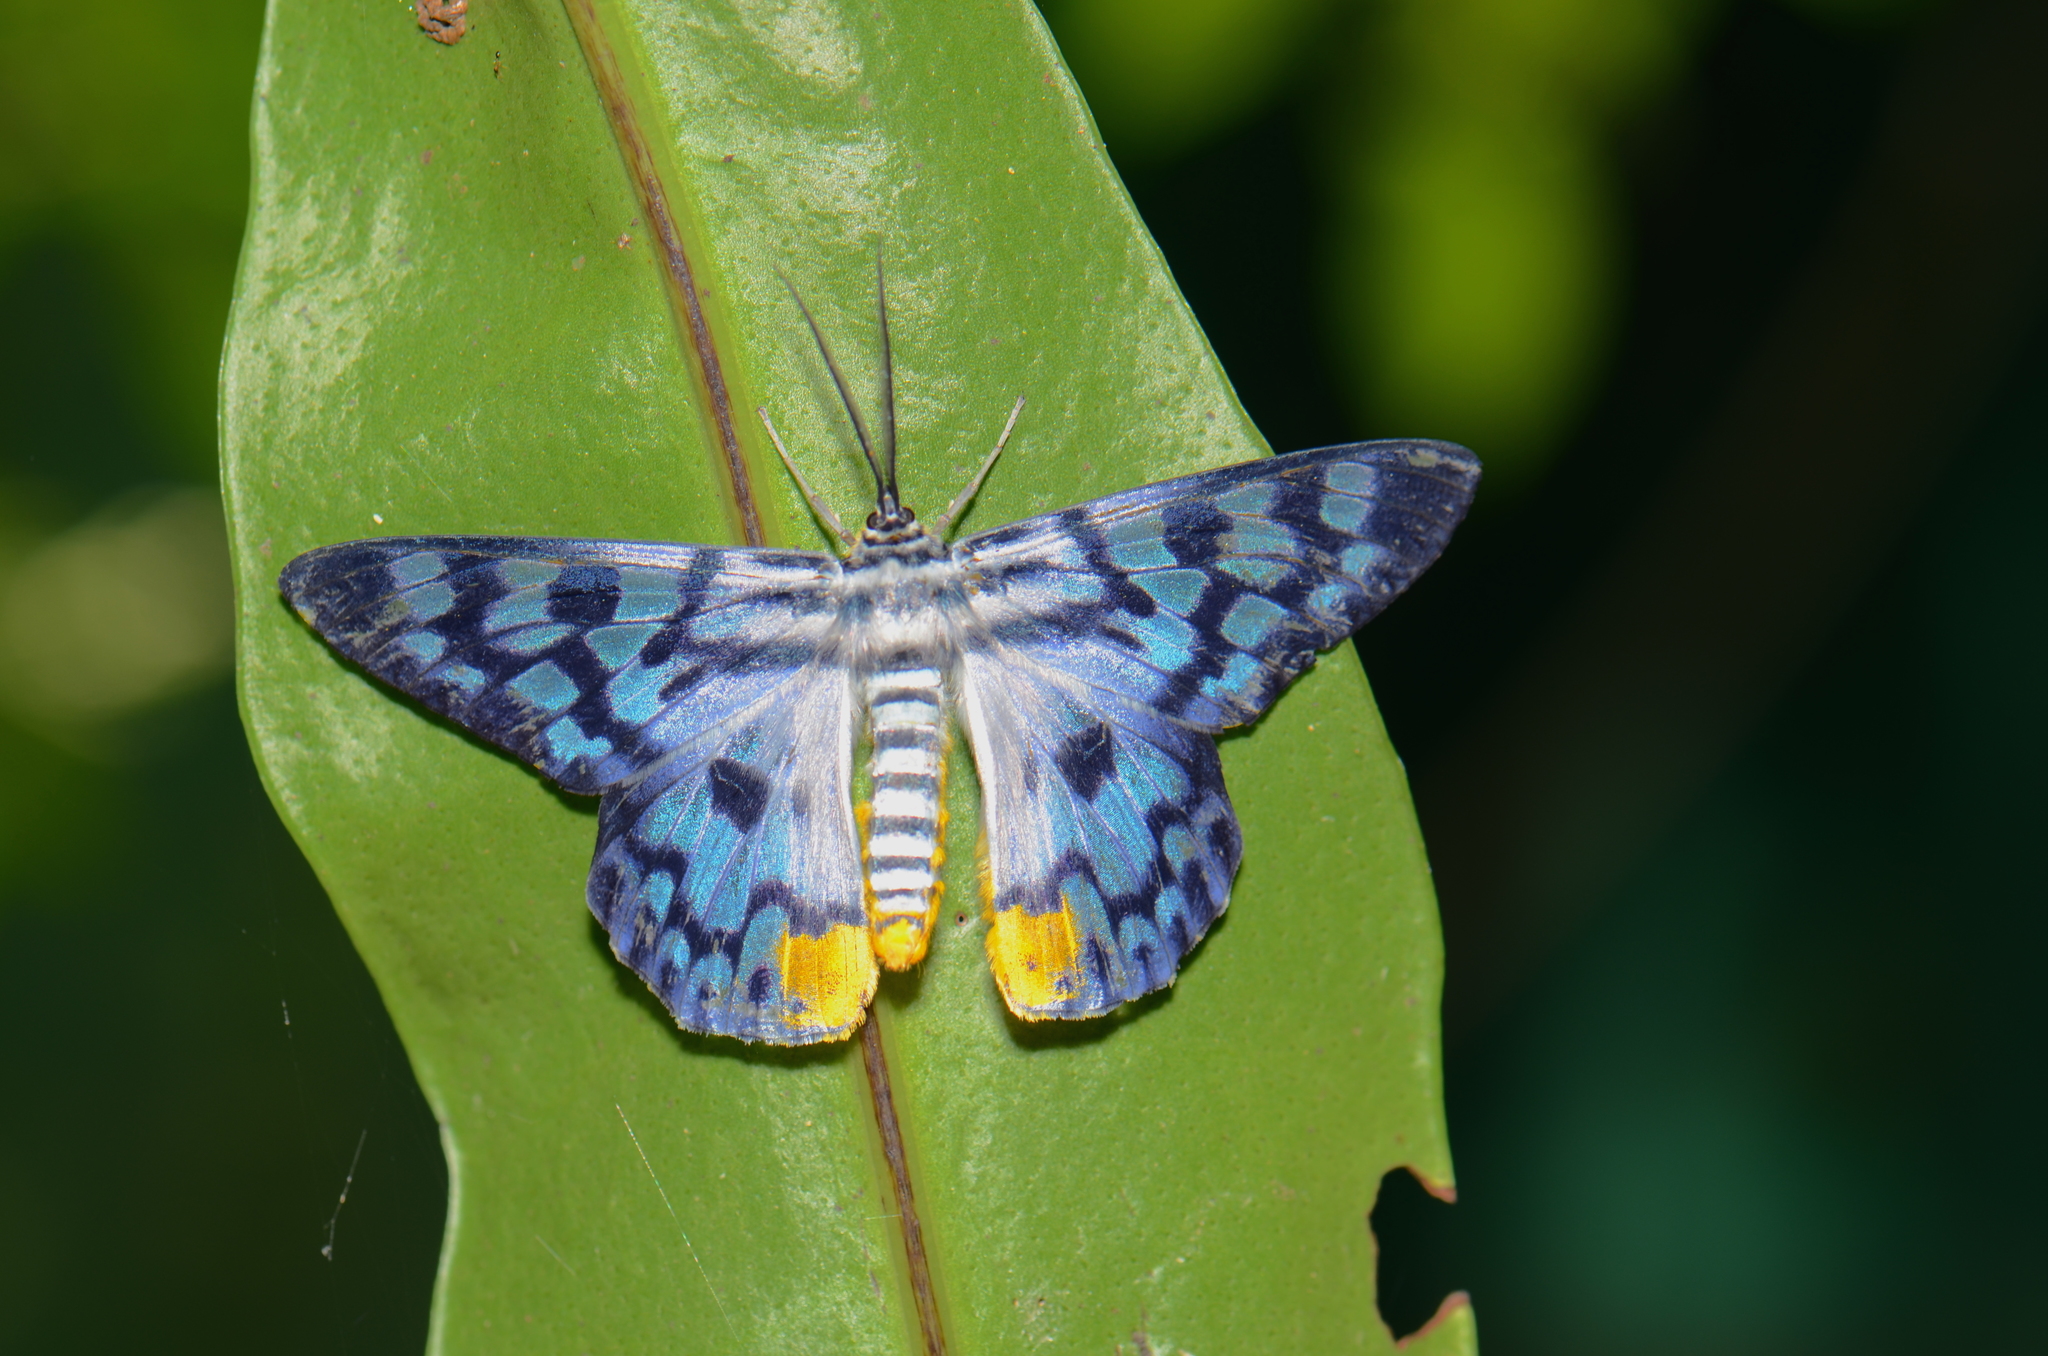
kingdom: Animalia
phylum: Arthropoda
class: Insecta
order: Lepidoptera
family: Geometridae
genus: Dysphania
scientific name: Dysphania transducta
